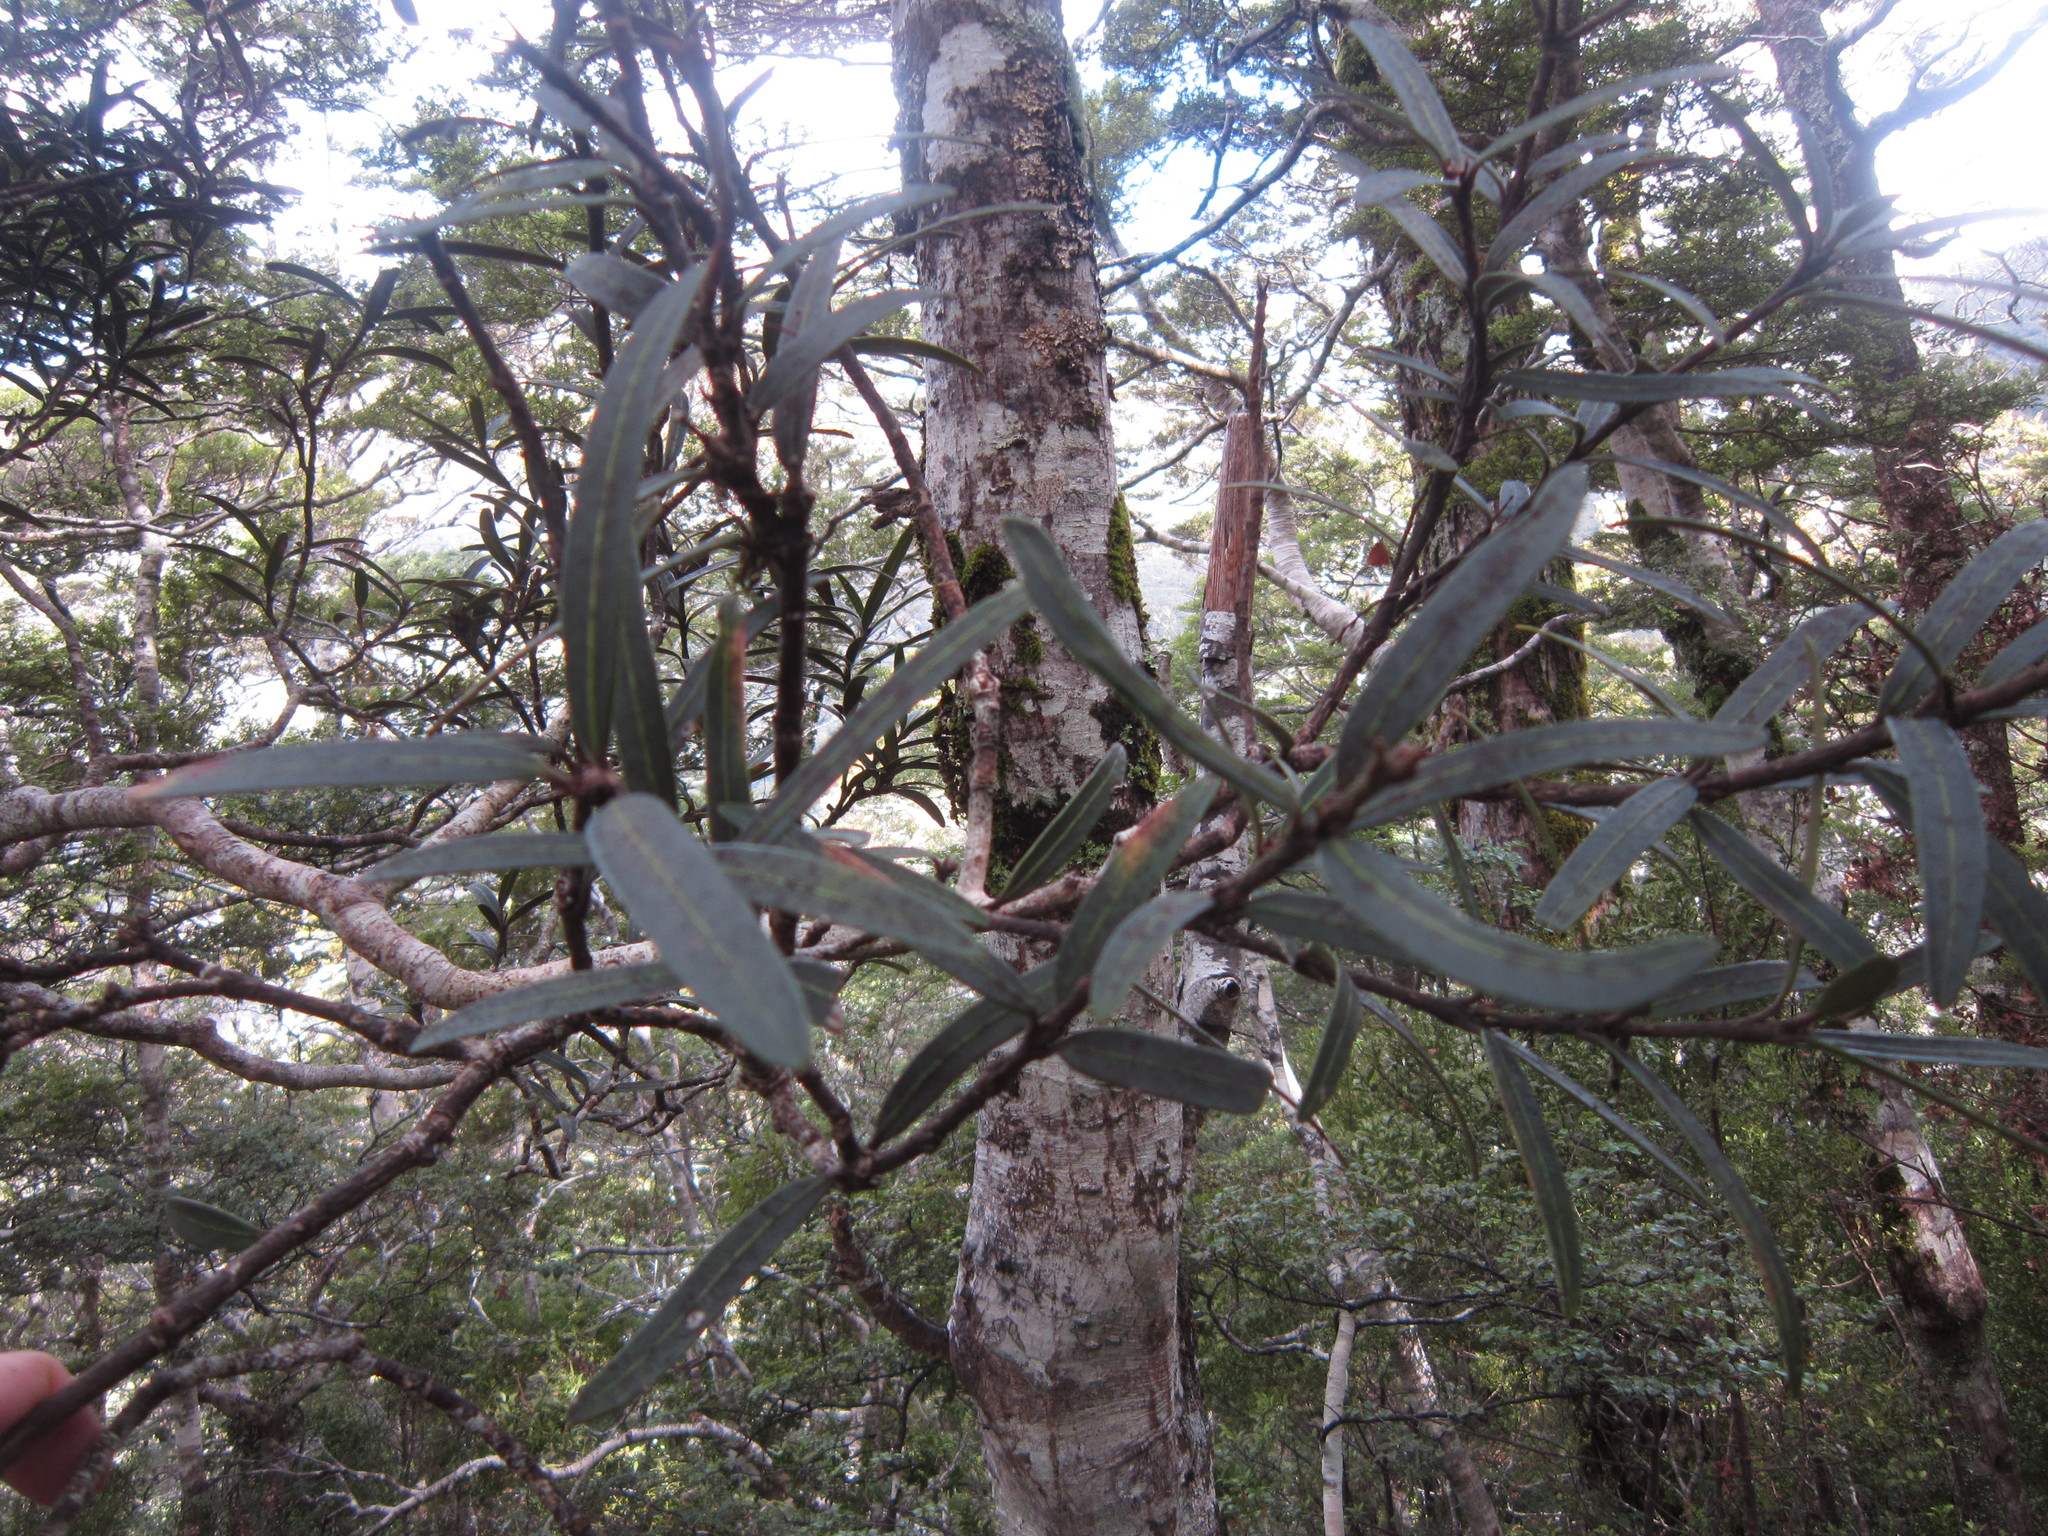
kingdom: Plantae
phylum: Tracheophyta
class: Magnoliopsida
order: Apiales
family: Araliaceae
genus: Pseudopanax
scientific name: Pseudopanax linearis
